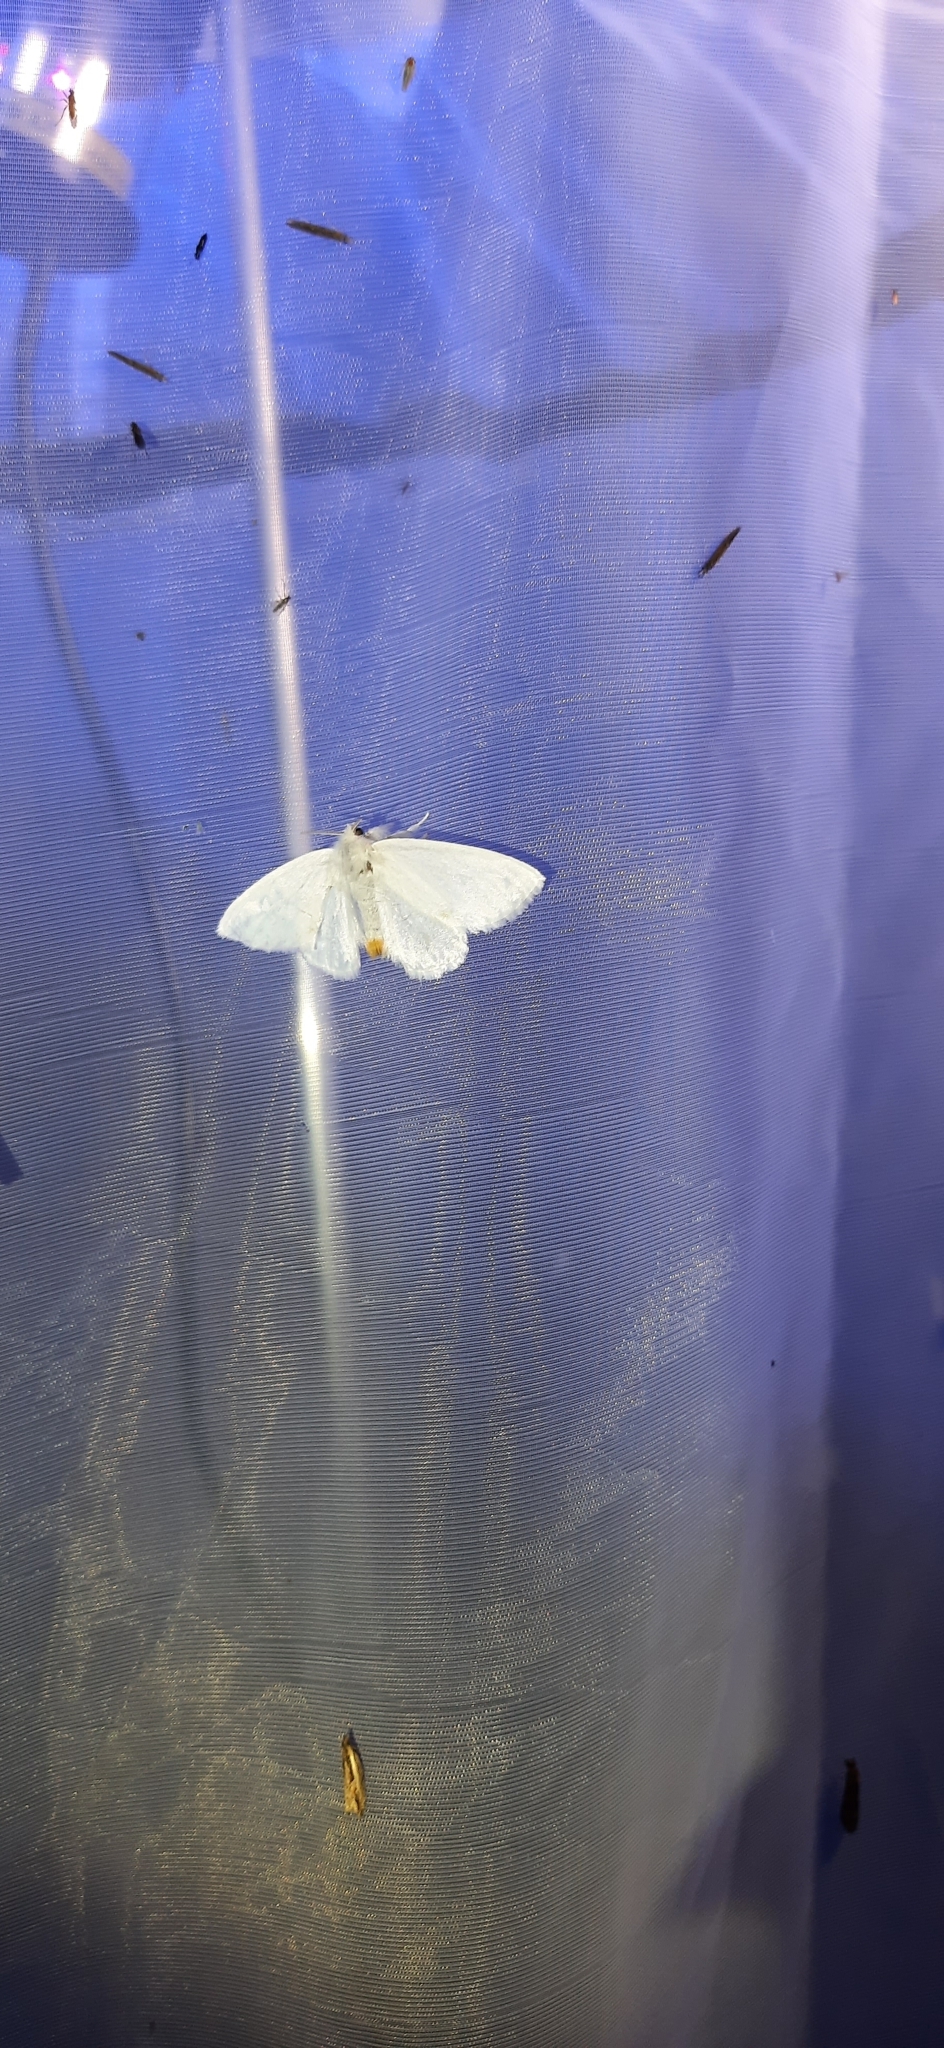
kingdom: Animalia
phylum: Arthropoda
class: Insecta
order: Lepidoptera
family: Erebidae
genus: Sphrageidus
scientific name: Sphrageidus similis
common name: Yellow-tail
